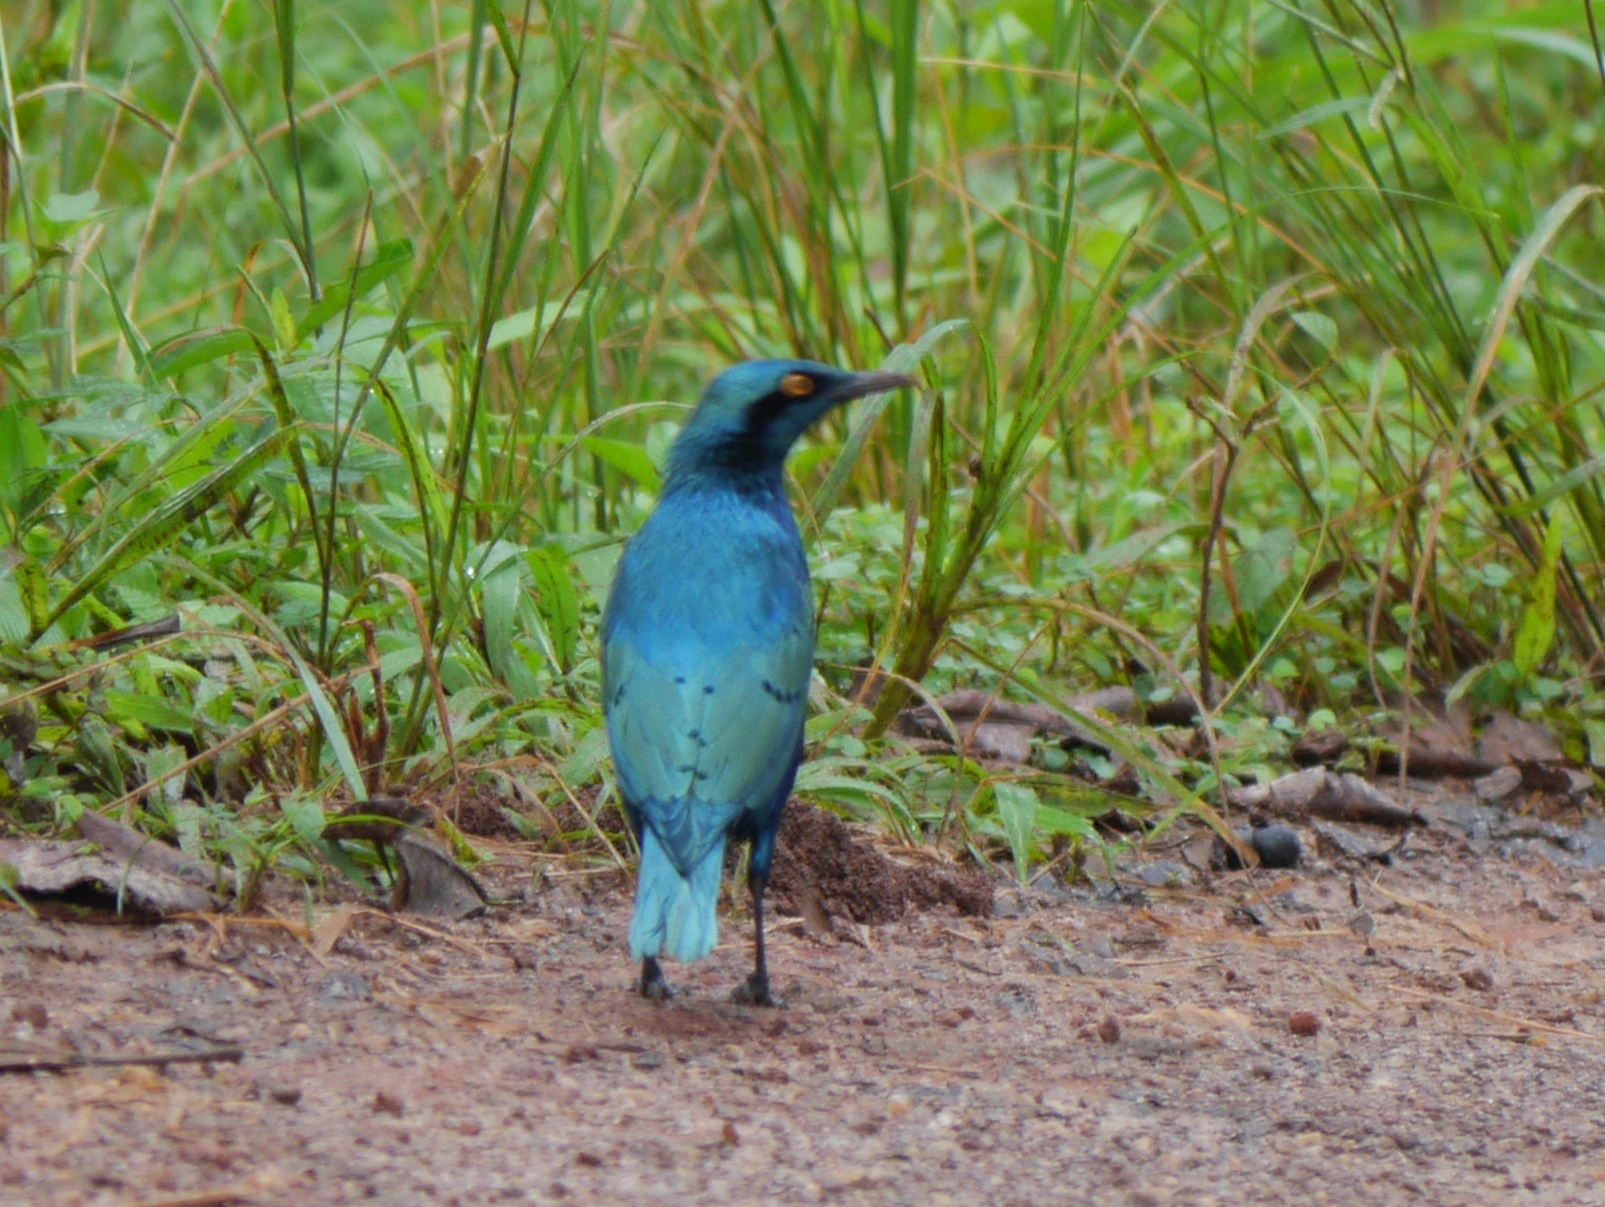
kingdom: Animalia
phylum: Chordata
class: Aves
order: Passeriformes
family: Sturnidae
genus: Lamprotornis
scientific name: Lamprotornis chloropterus
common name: Lesser blue-eared starling
